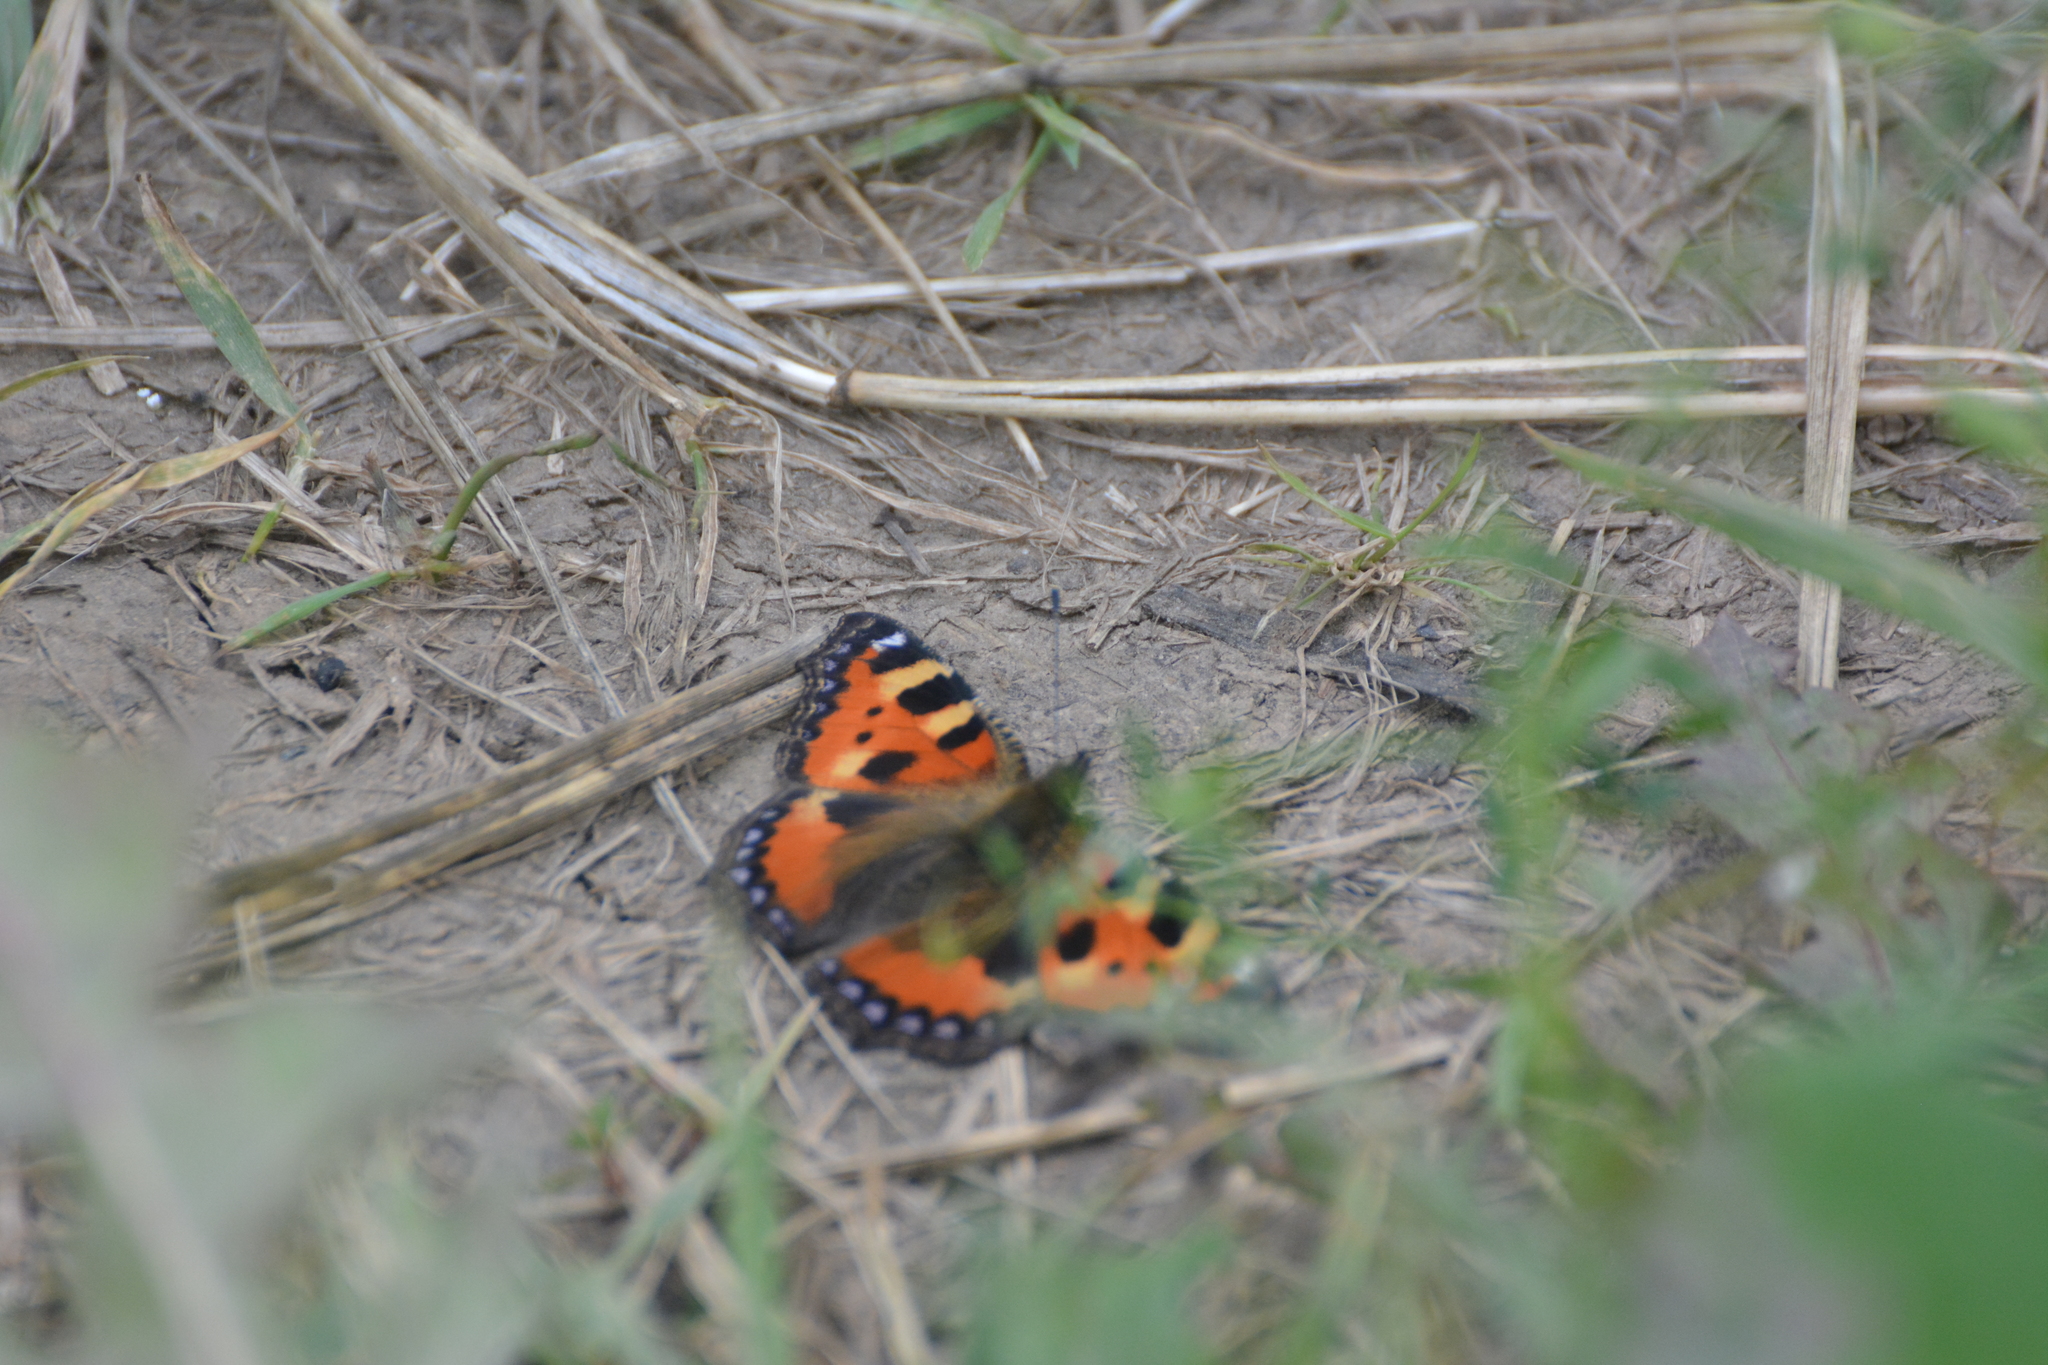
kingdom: Animalia
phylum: Arthropoda
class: Insecta
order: Lepidoptera
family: Nymphalidae
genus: Aglais
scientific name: Aglais urticae
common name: Small tortoiseshell
